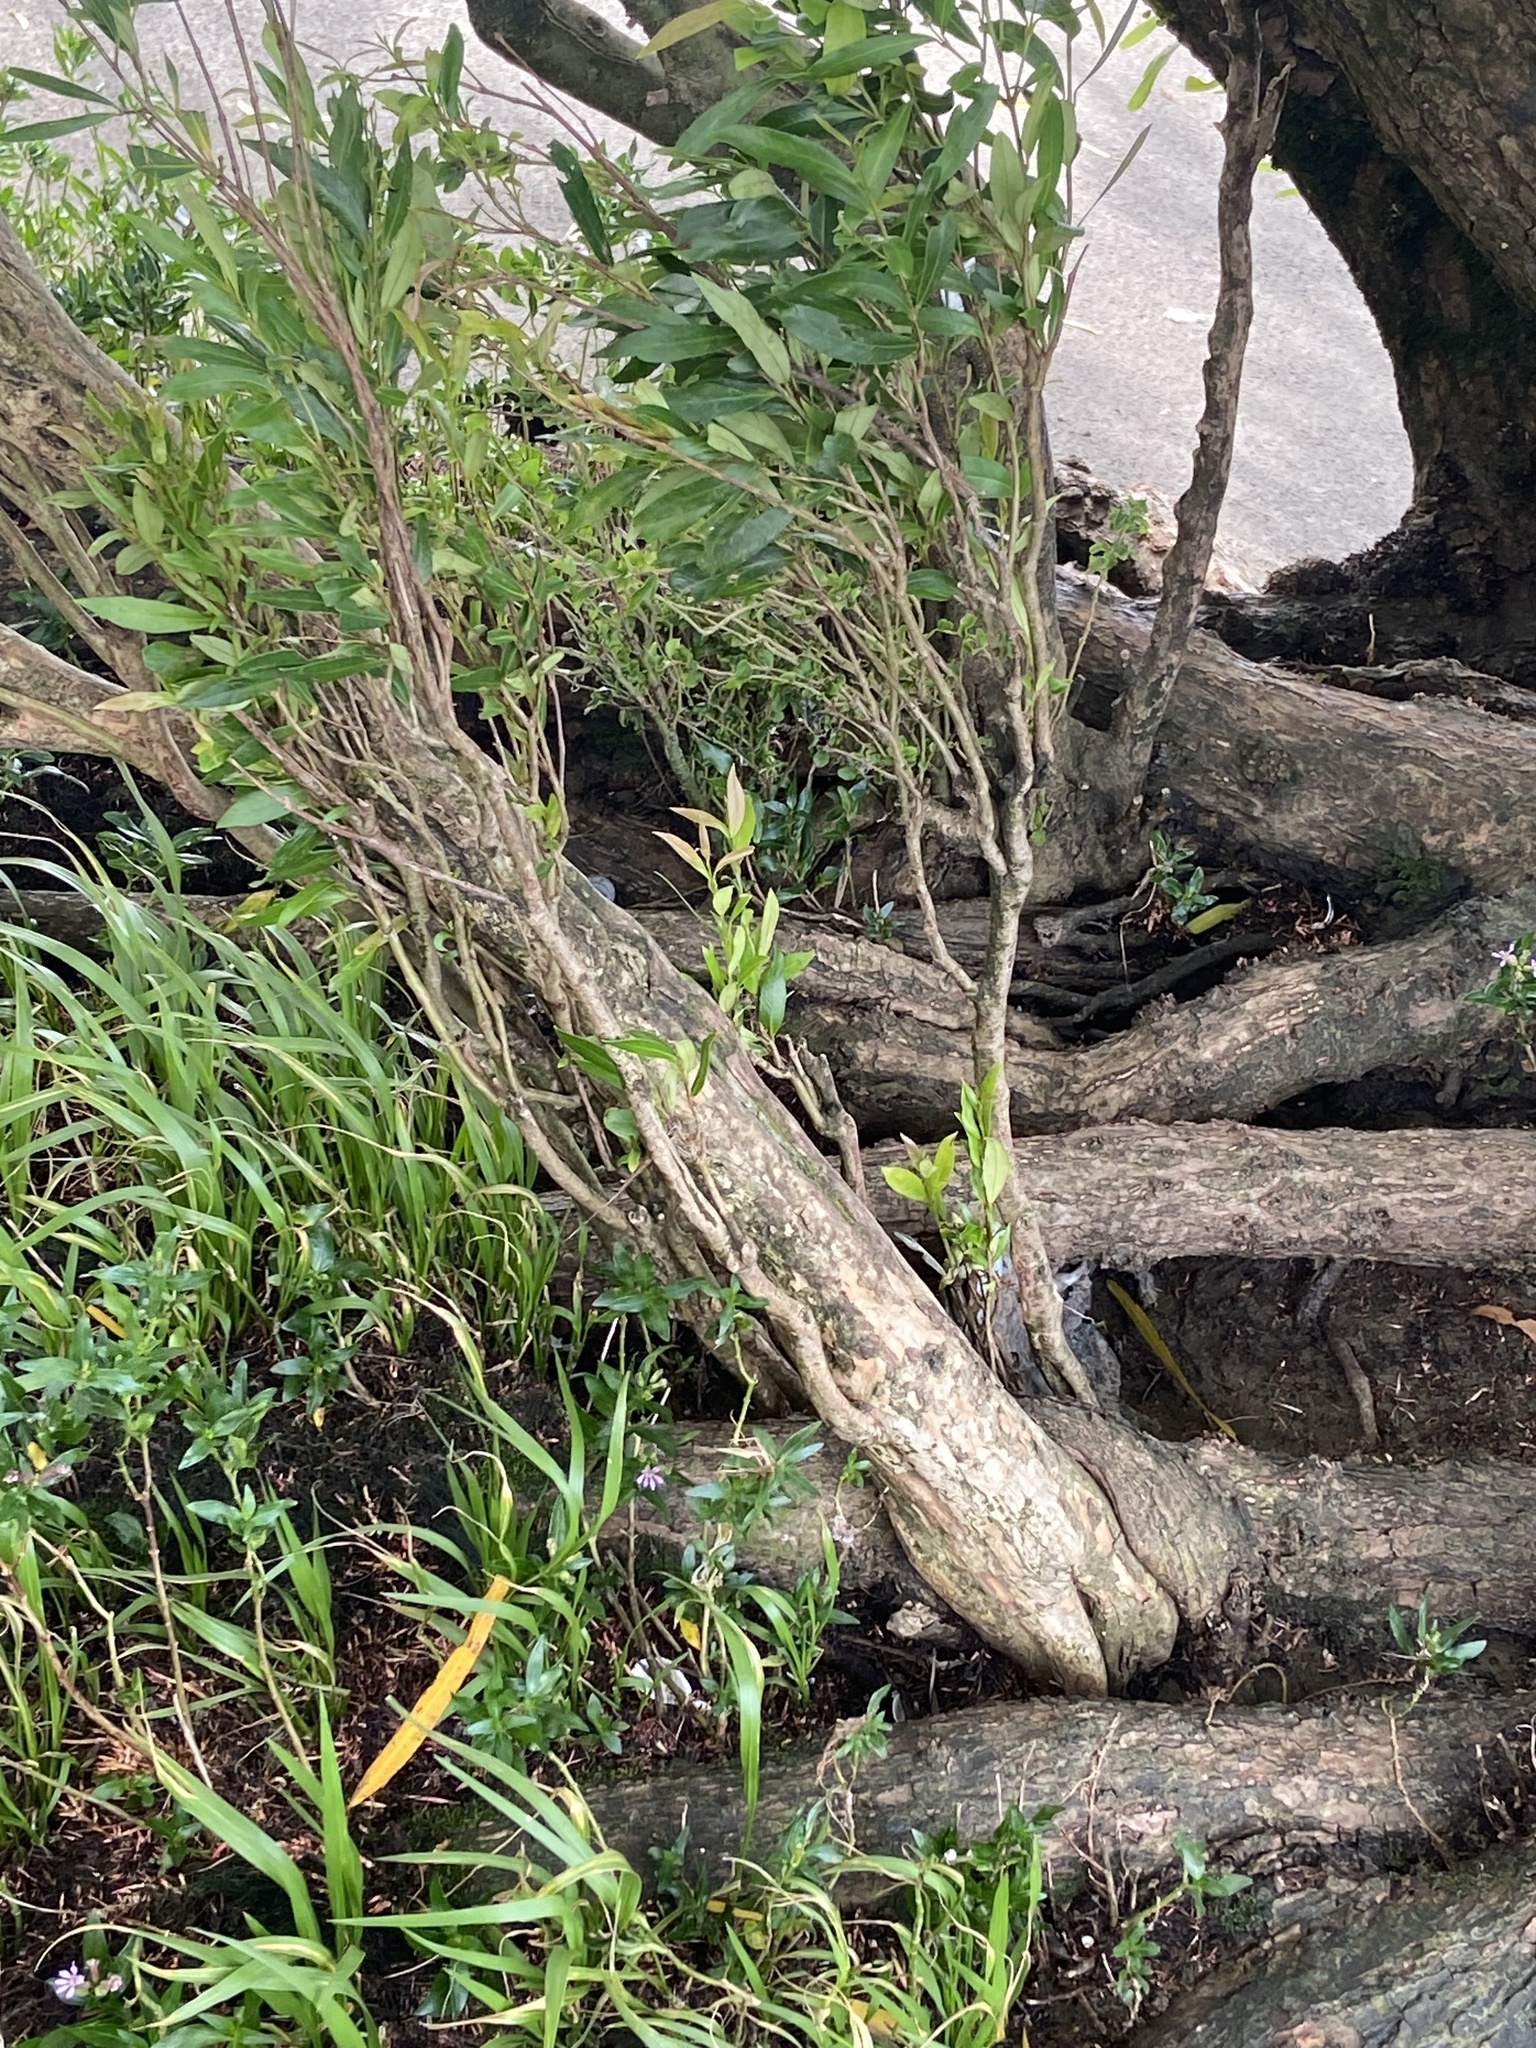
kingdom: Plantae
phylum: Tracheophyta
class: Magnoliopsida
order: Myrtales
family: Myrtaceae
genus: Myrceugenia
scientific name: Myrceugenia glaucescens
